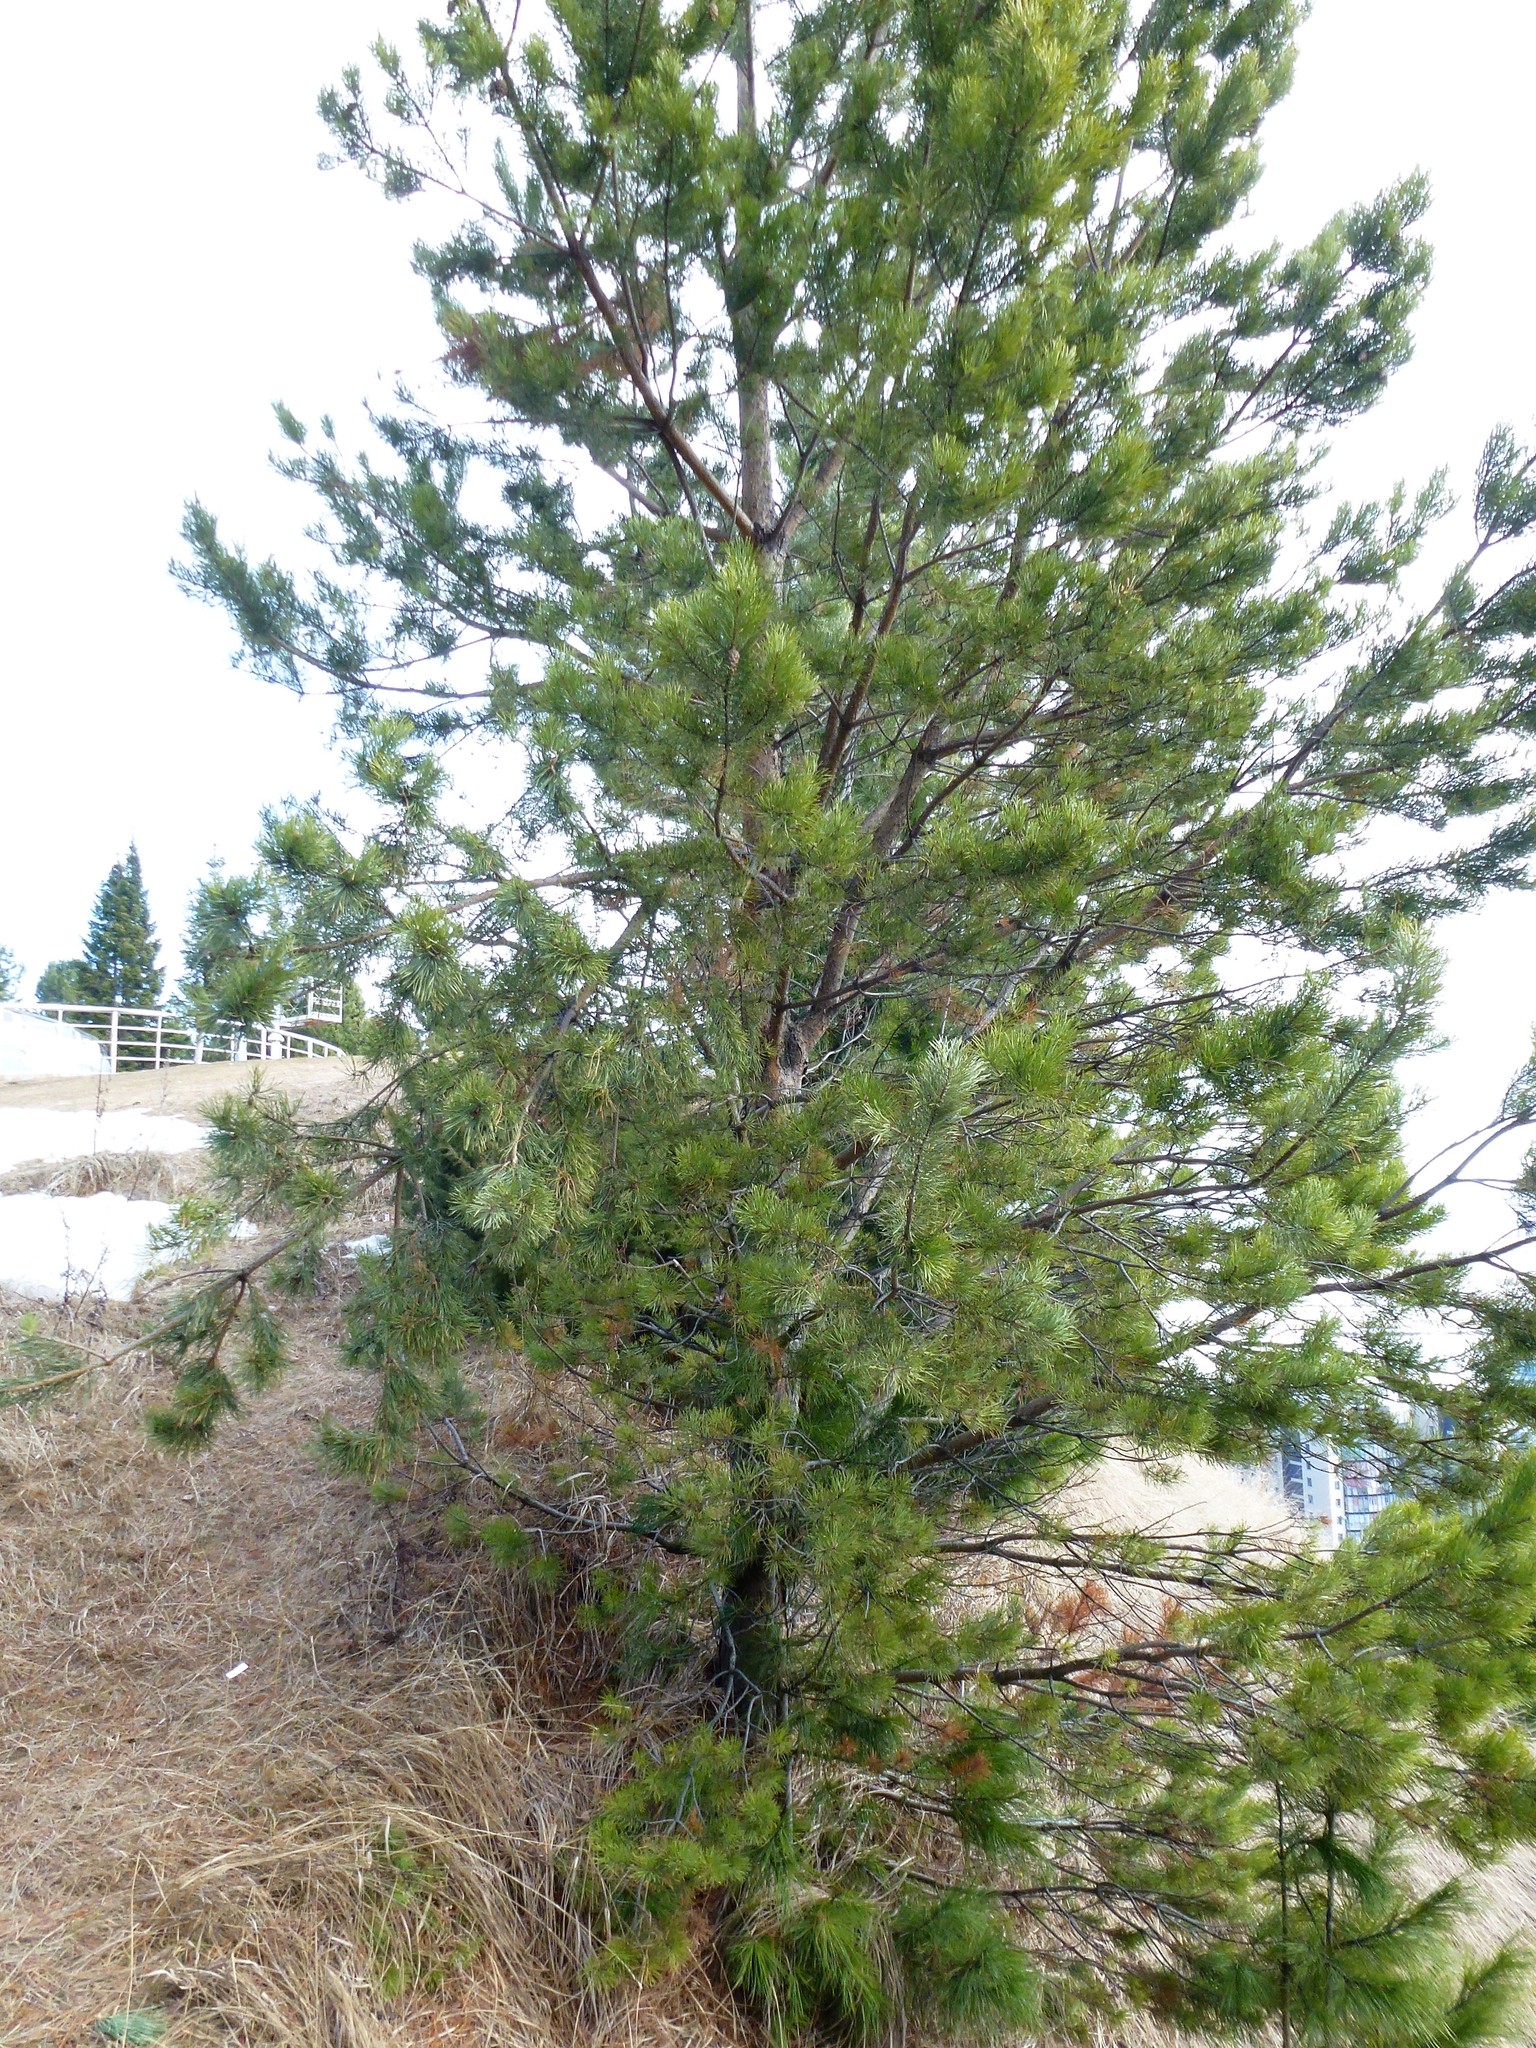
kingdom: Plantae
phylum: Tracheophyta
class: Pinopsida
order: Pinales
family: Pinaceae
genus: Pinus
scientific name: Pinus sylvestris
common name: Scots pine
